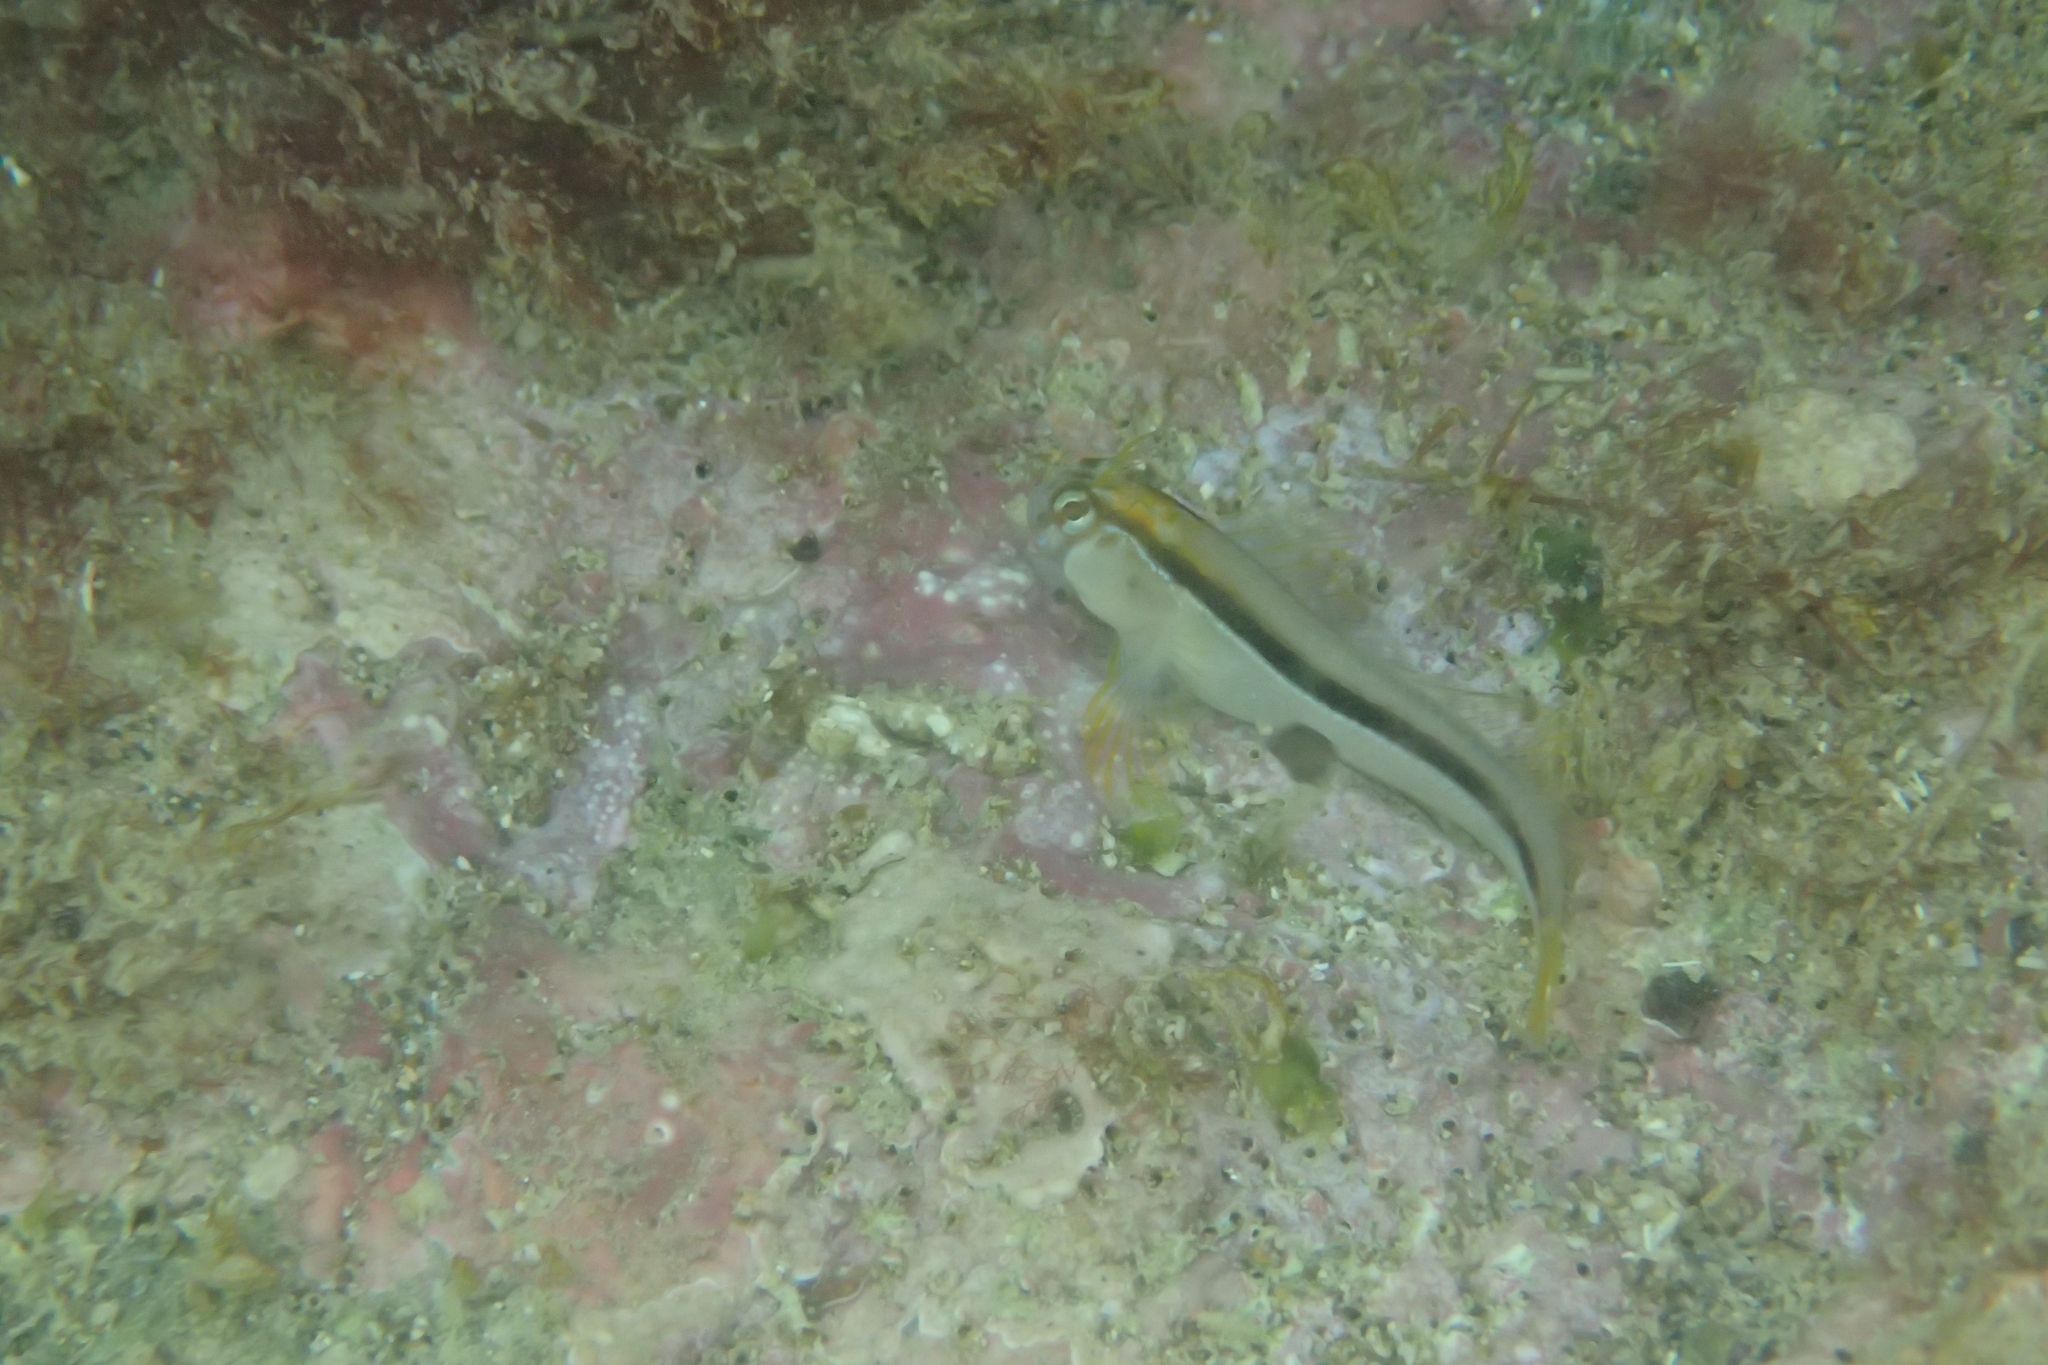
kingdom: Animalia
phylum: Chordata
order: Perciformes
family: Blenniidae
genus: Parablennius
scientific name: Parablennius laticlavius
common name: Crested blenny
